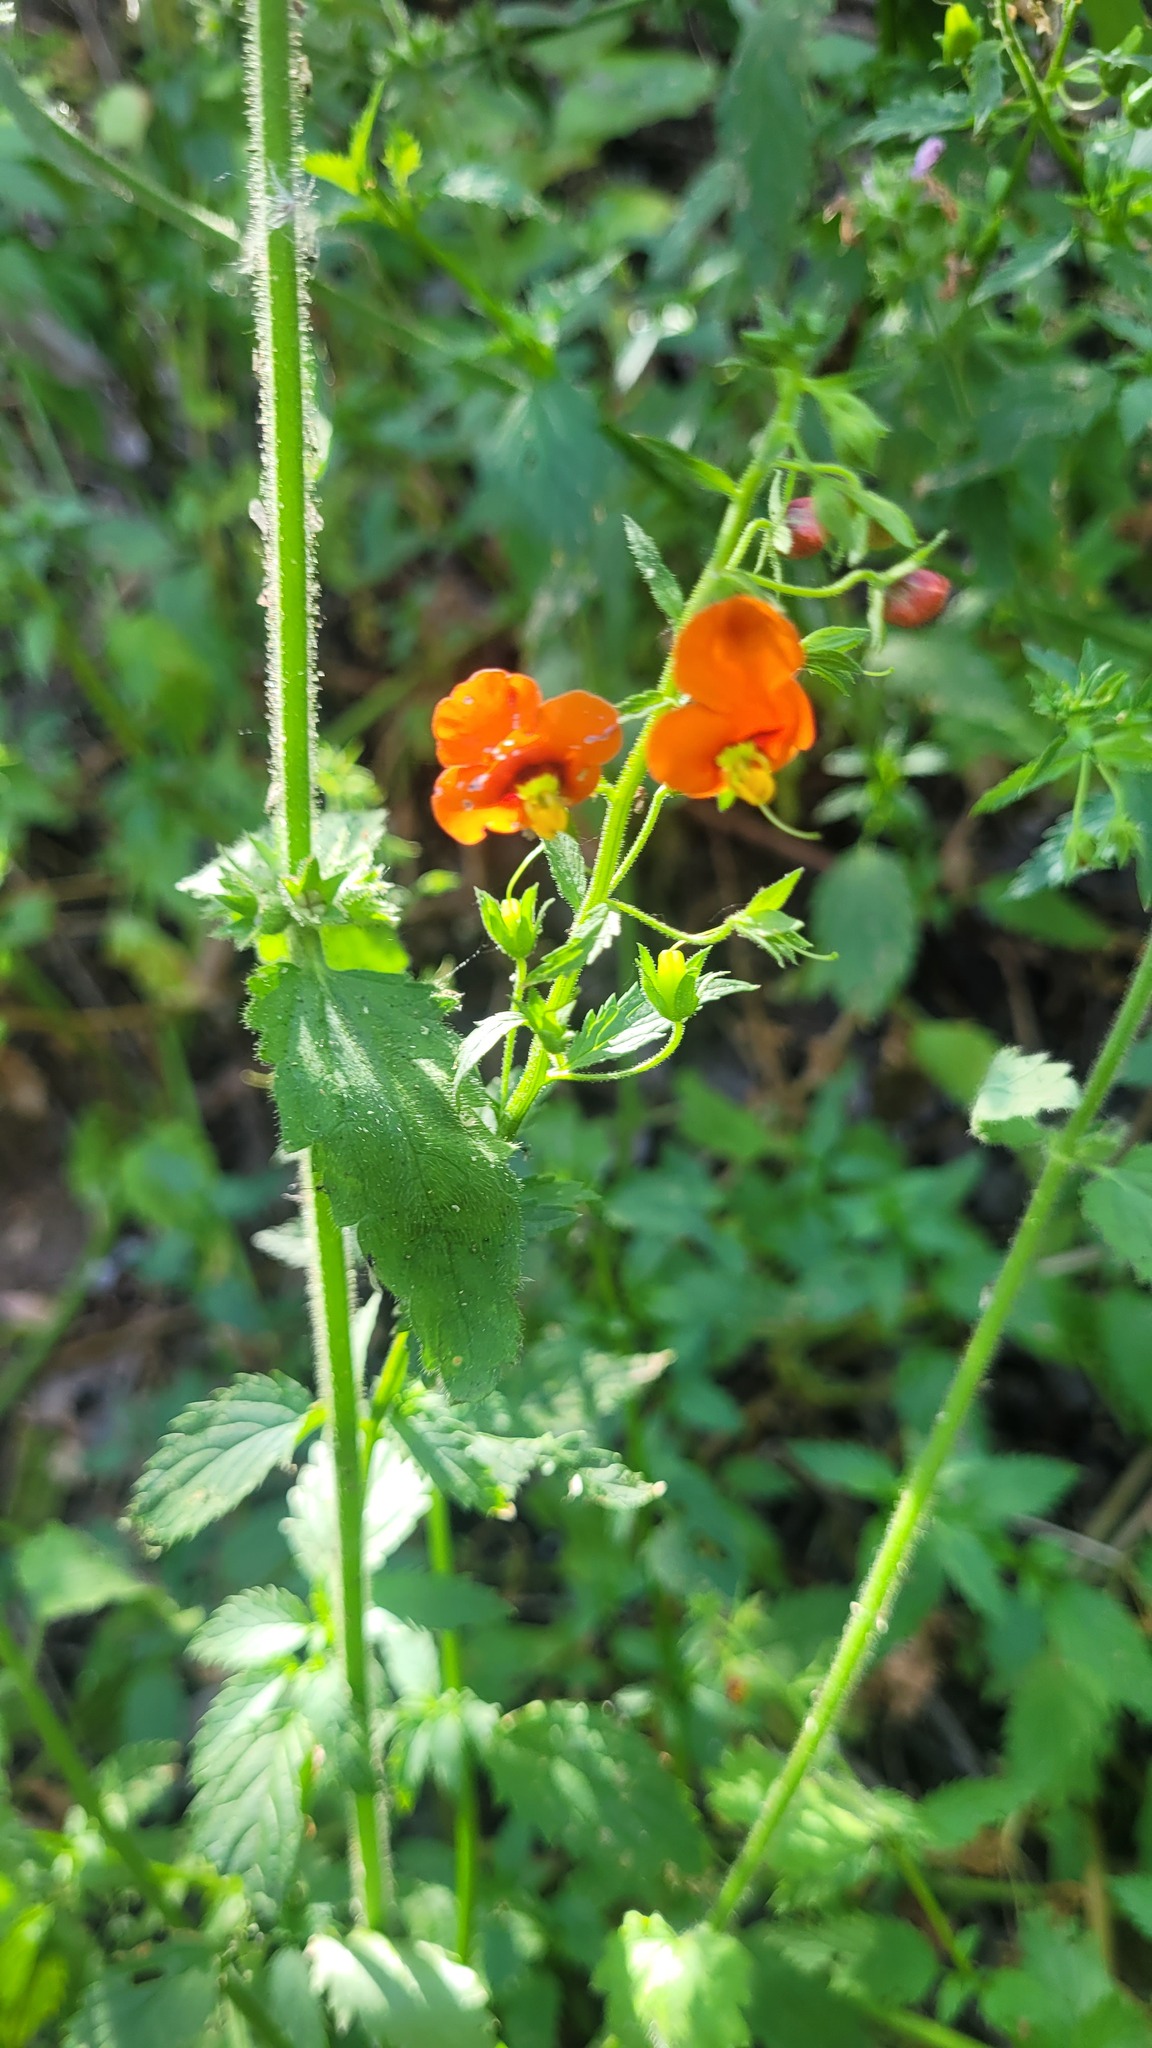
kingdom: Plantae
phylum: Tracheophyta
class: Magnoliopsida
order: Lamiales
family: Scrophulariaceae
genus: Alonsoa
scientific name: Alonsoa meridionalis
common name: Maskflower
